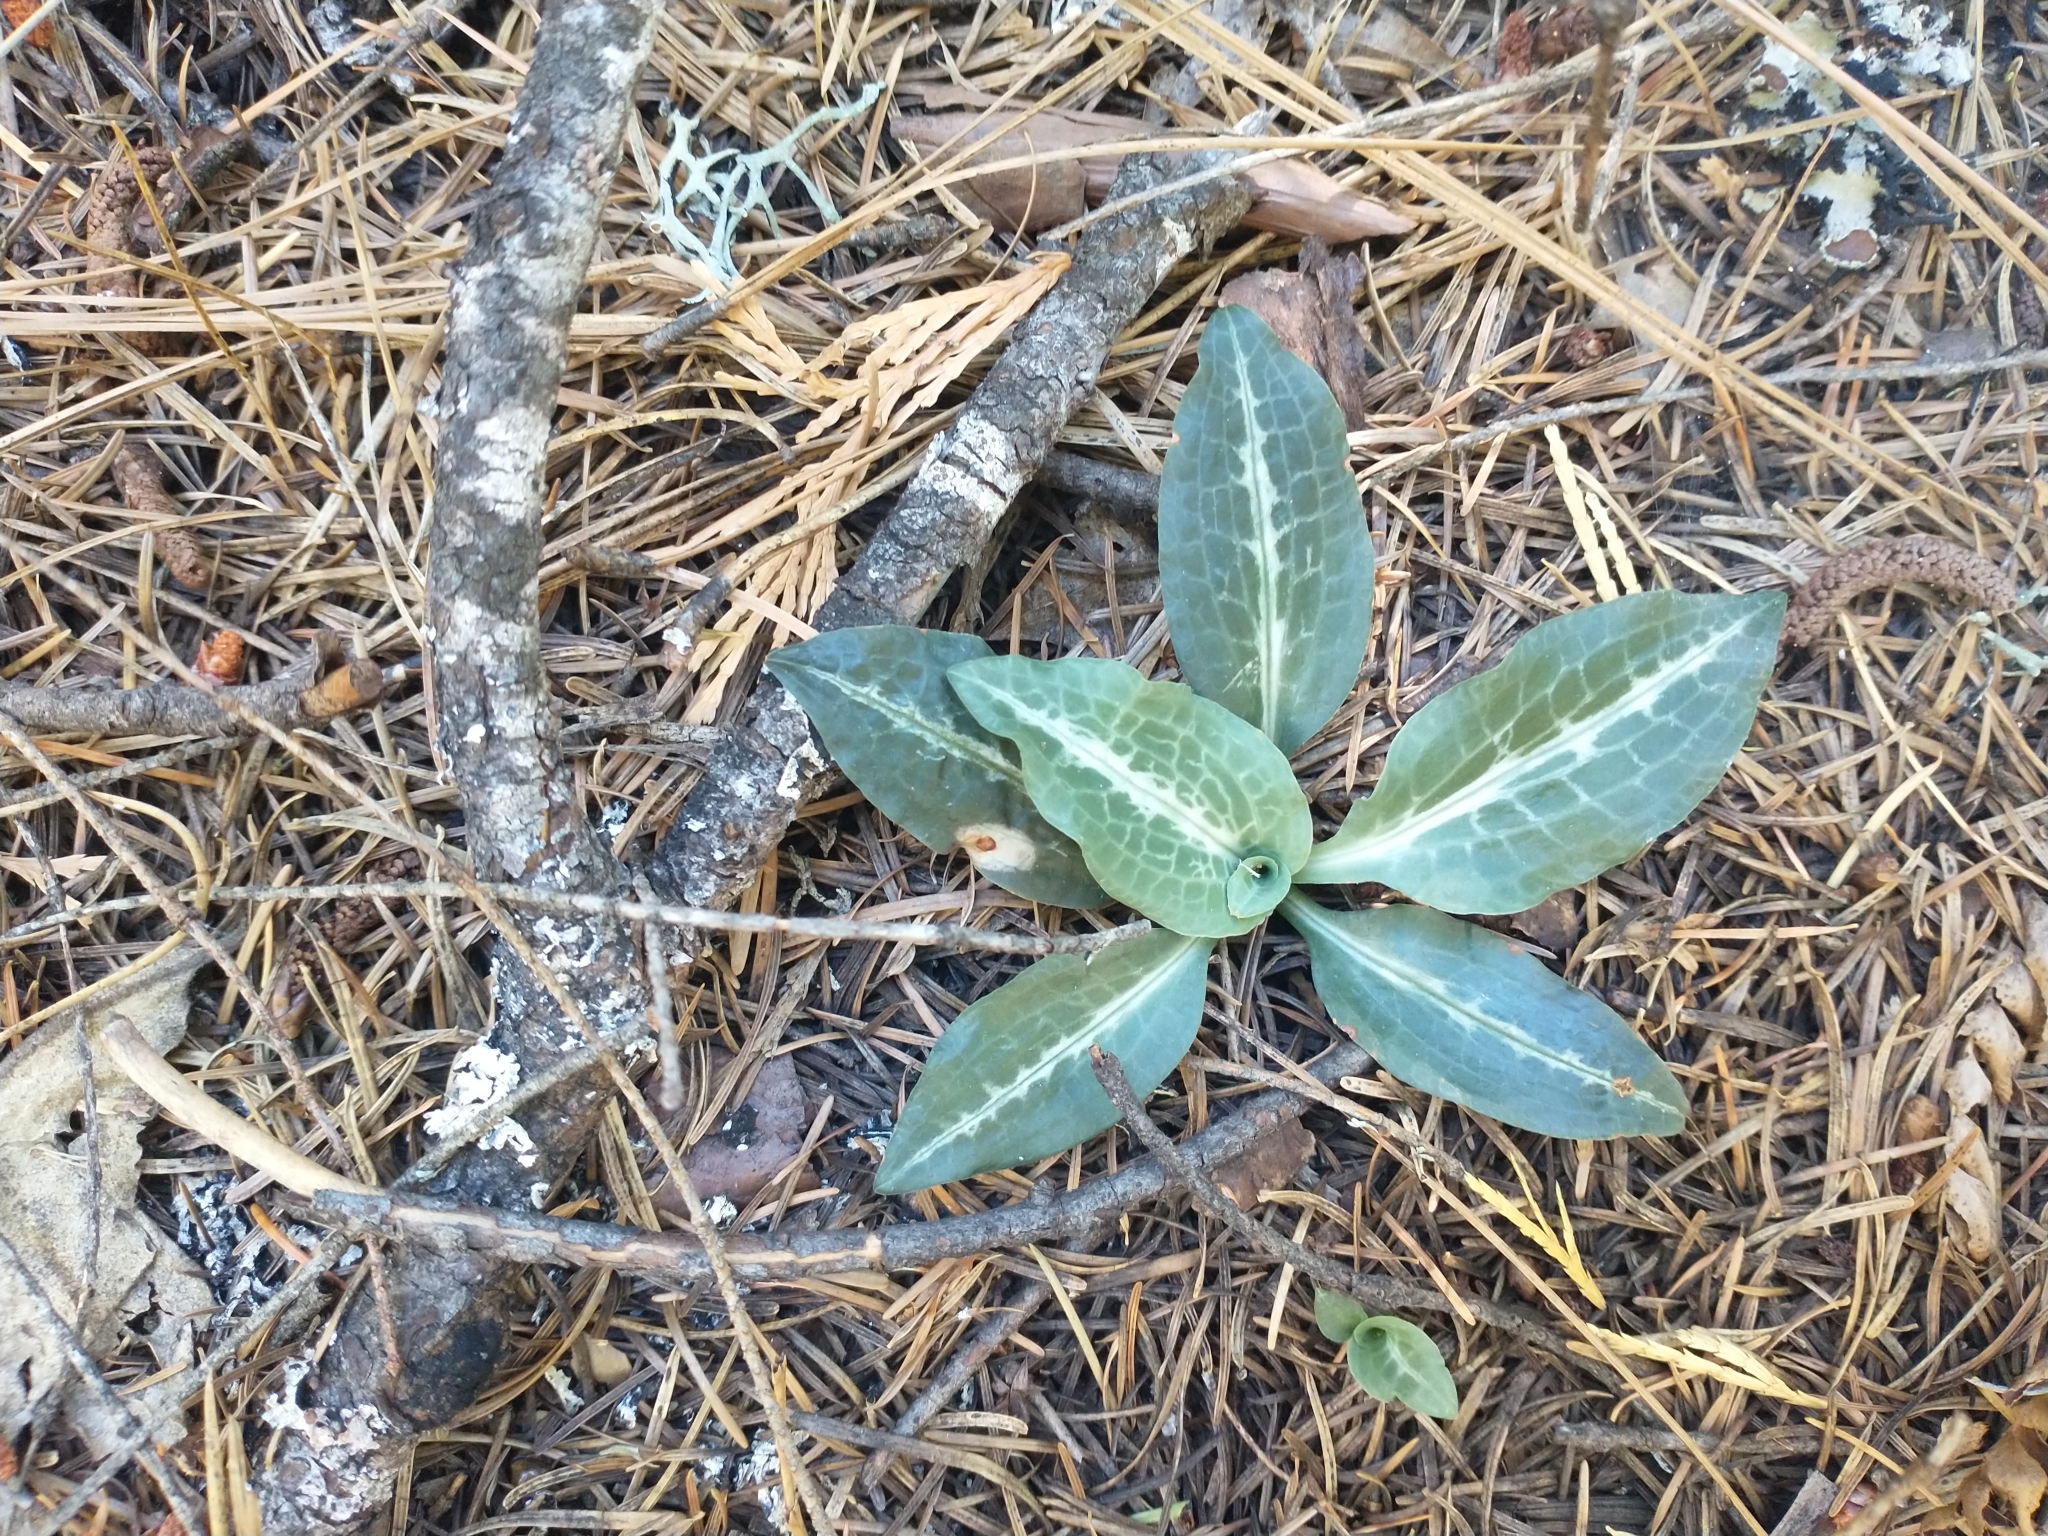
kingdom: Plantae
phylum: Tracheophyta
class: Liliopsida
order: Asparagales
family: Orchidaceae
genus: Goodyera
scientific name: Goodyera oblongifolia
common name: Giant rattlesnake-plantain
